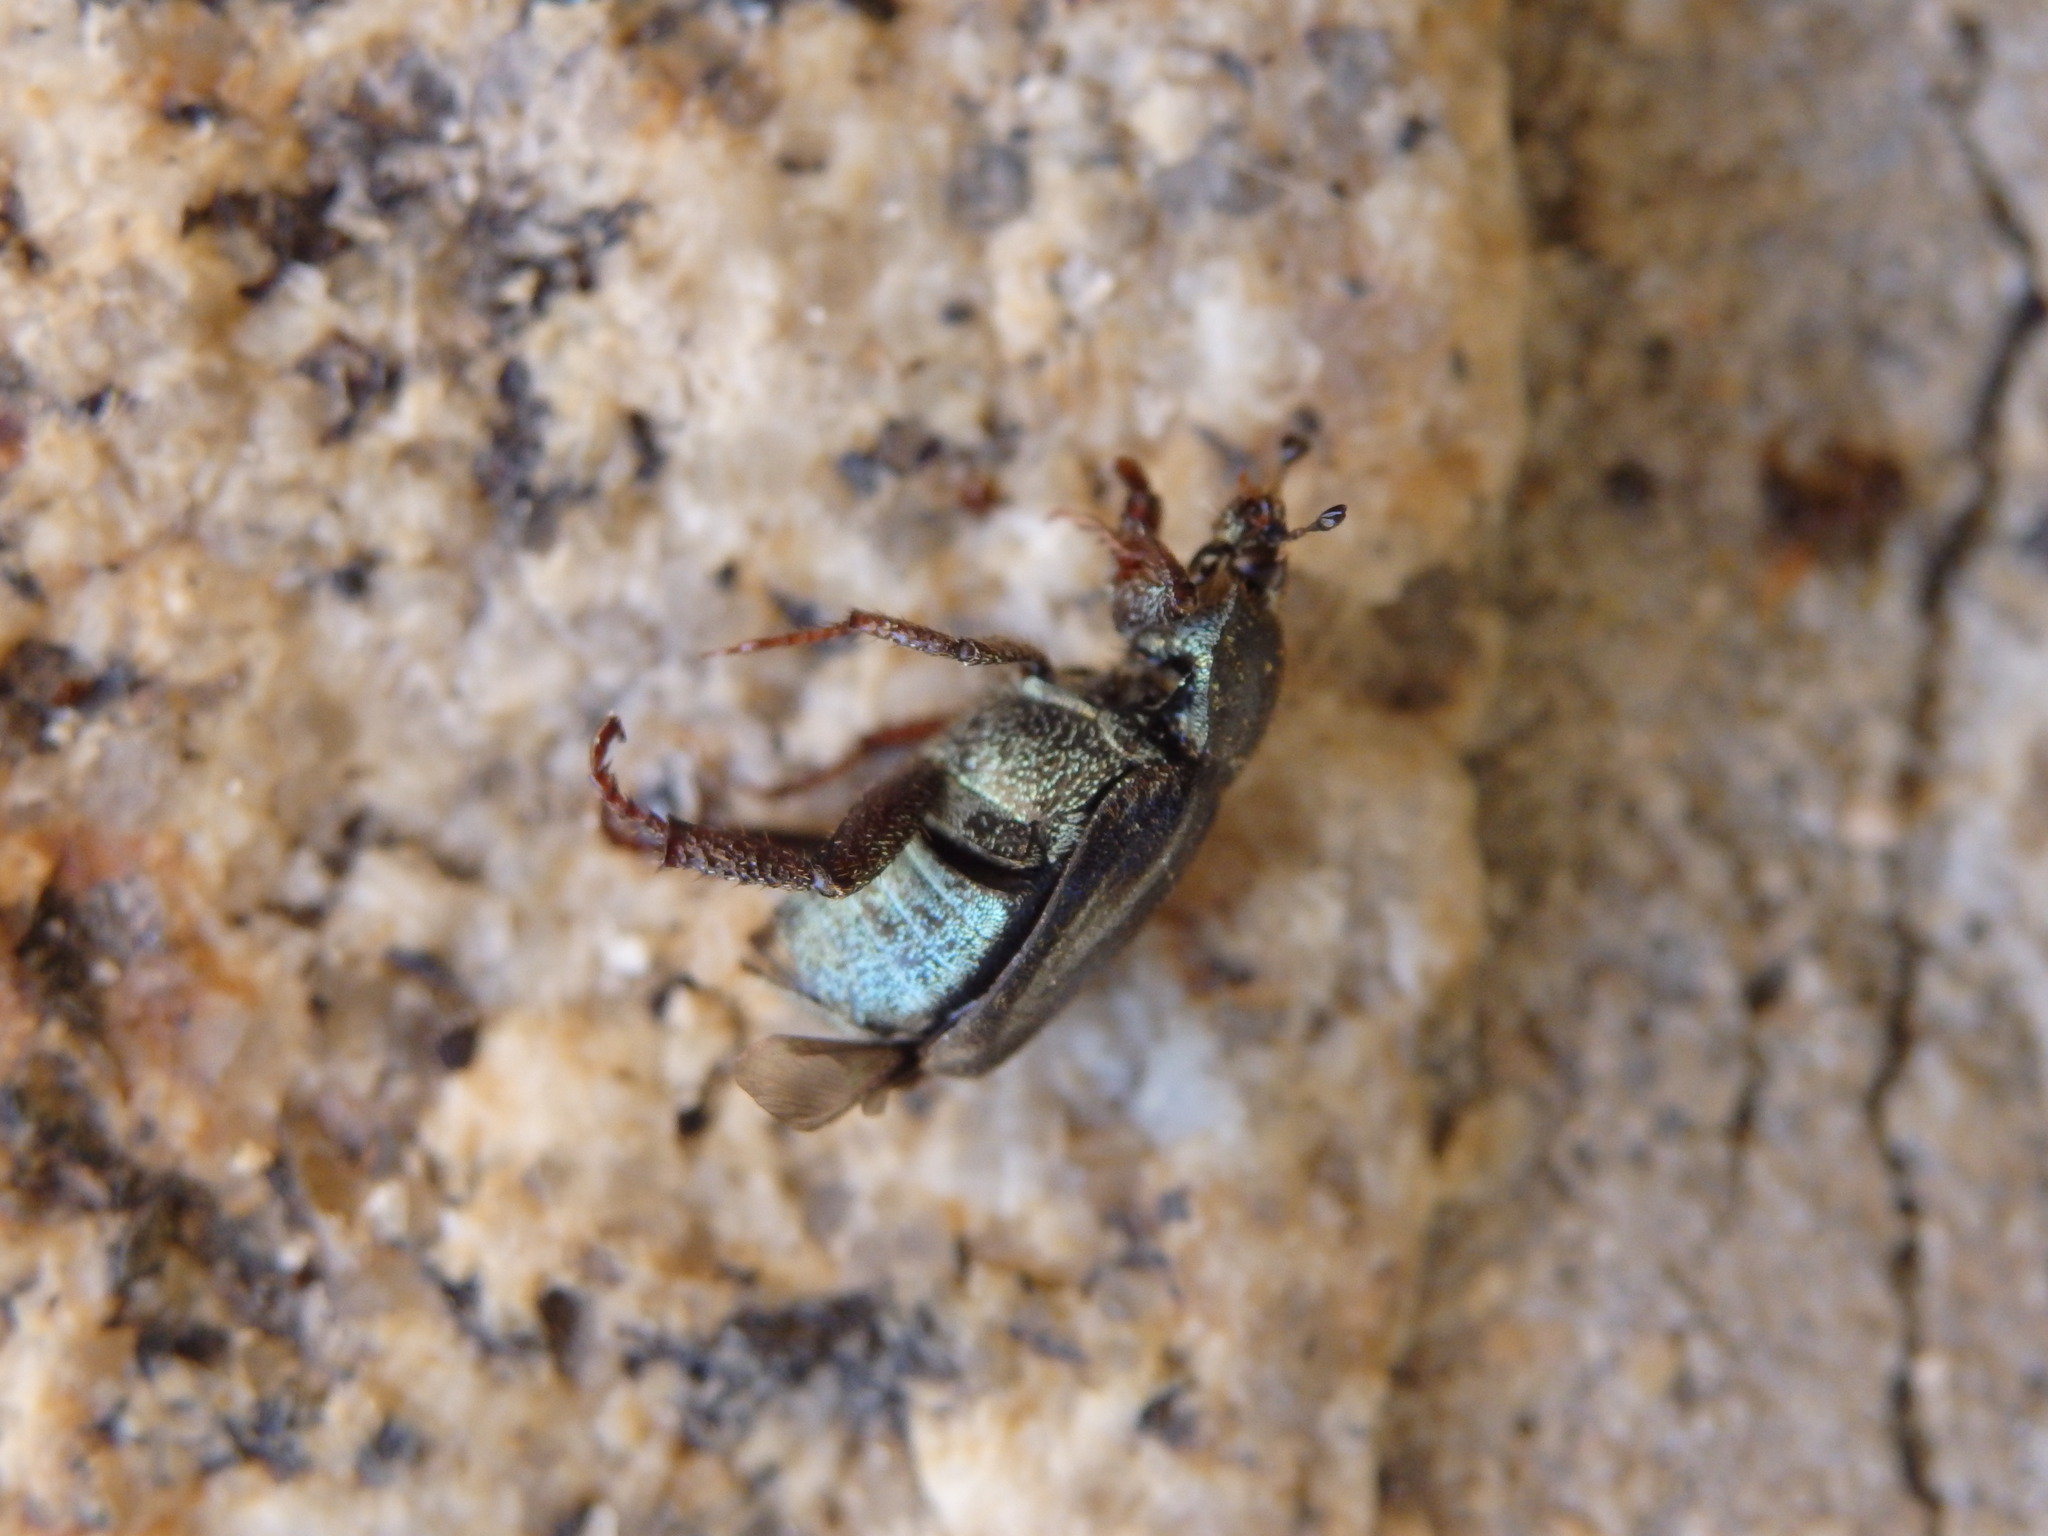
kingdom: Animalia
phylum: Arthropoda
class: Insecta
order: Coleoptera
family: Scarabaeidae
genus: Hoplia
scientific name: Hoplia philanthus
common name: Welsh chafer
